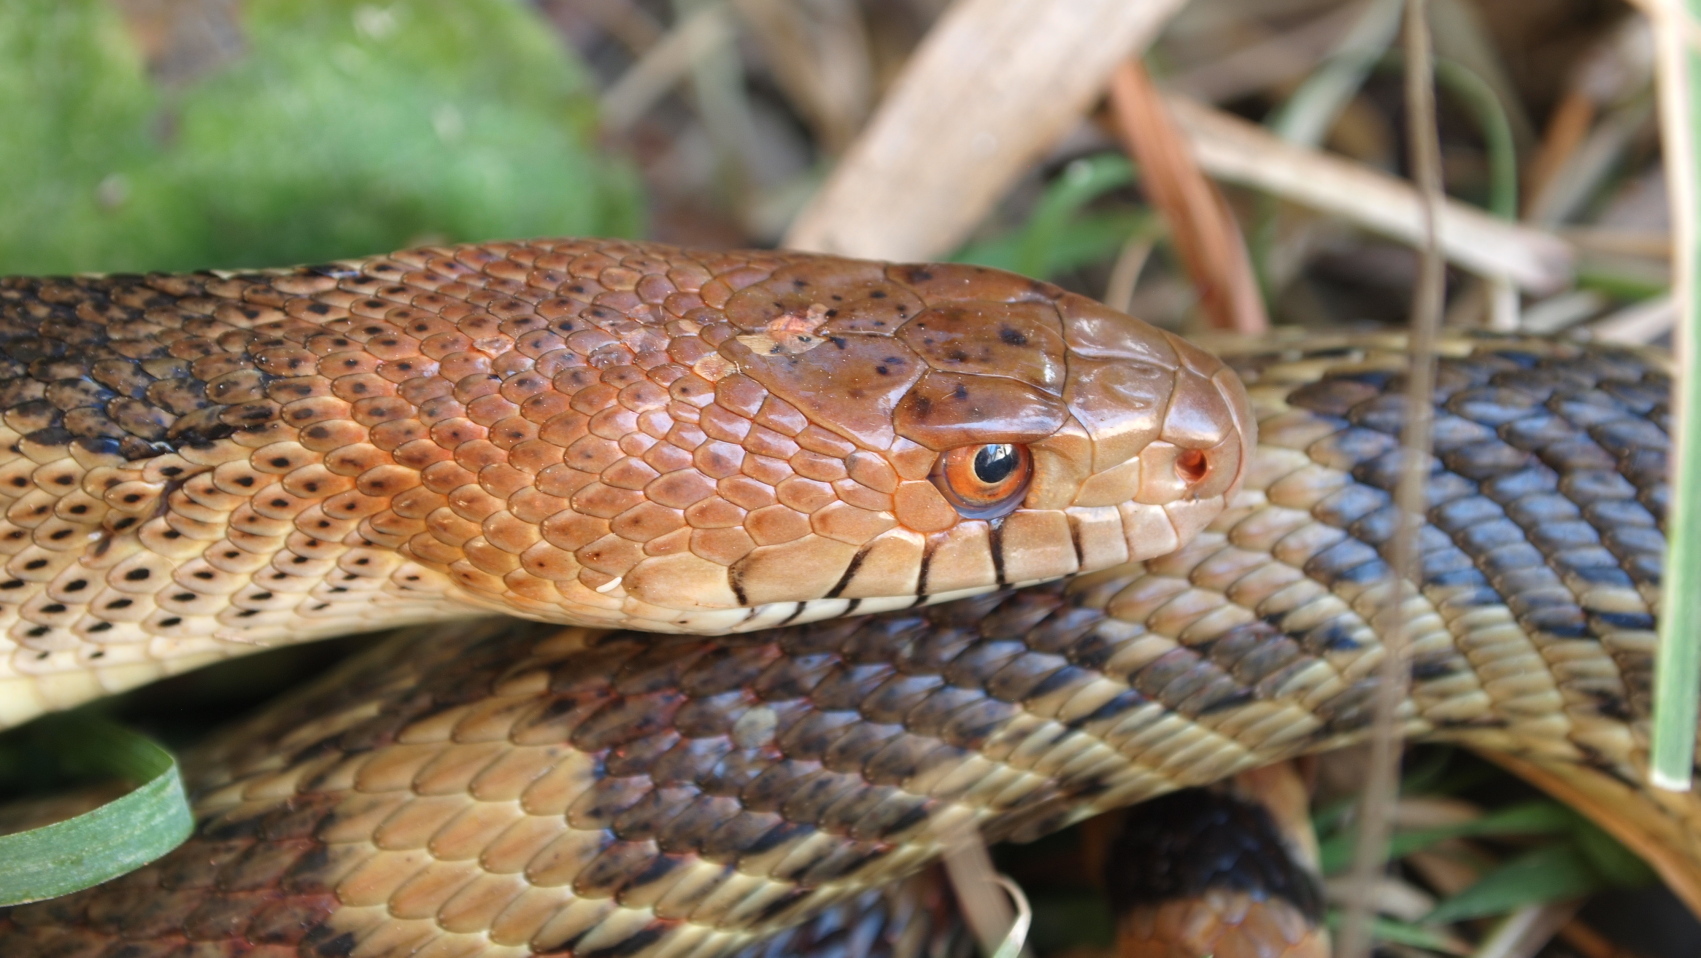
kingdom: Animalia
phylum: Chordata
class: Squamata
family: Colubridae
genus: Pituophis
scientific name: Pituophis deppei
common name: Mexican bull snake
